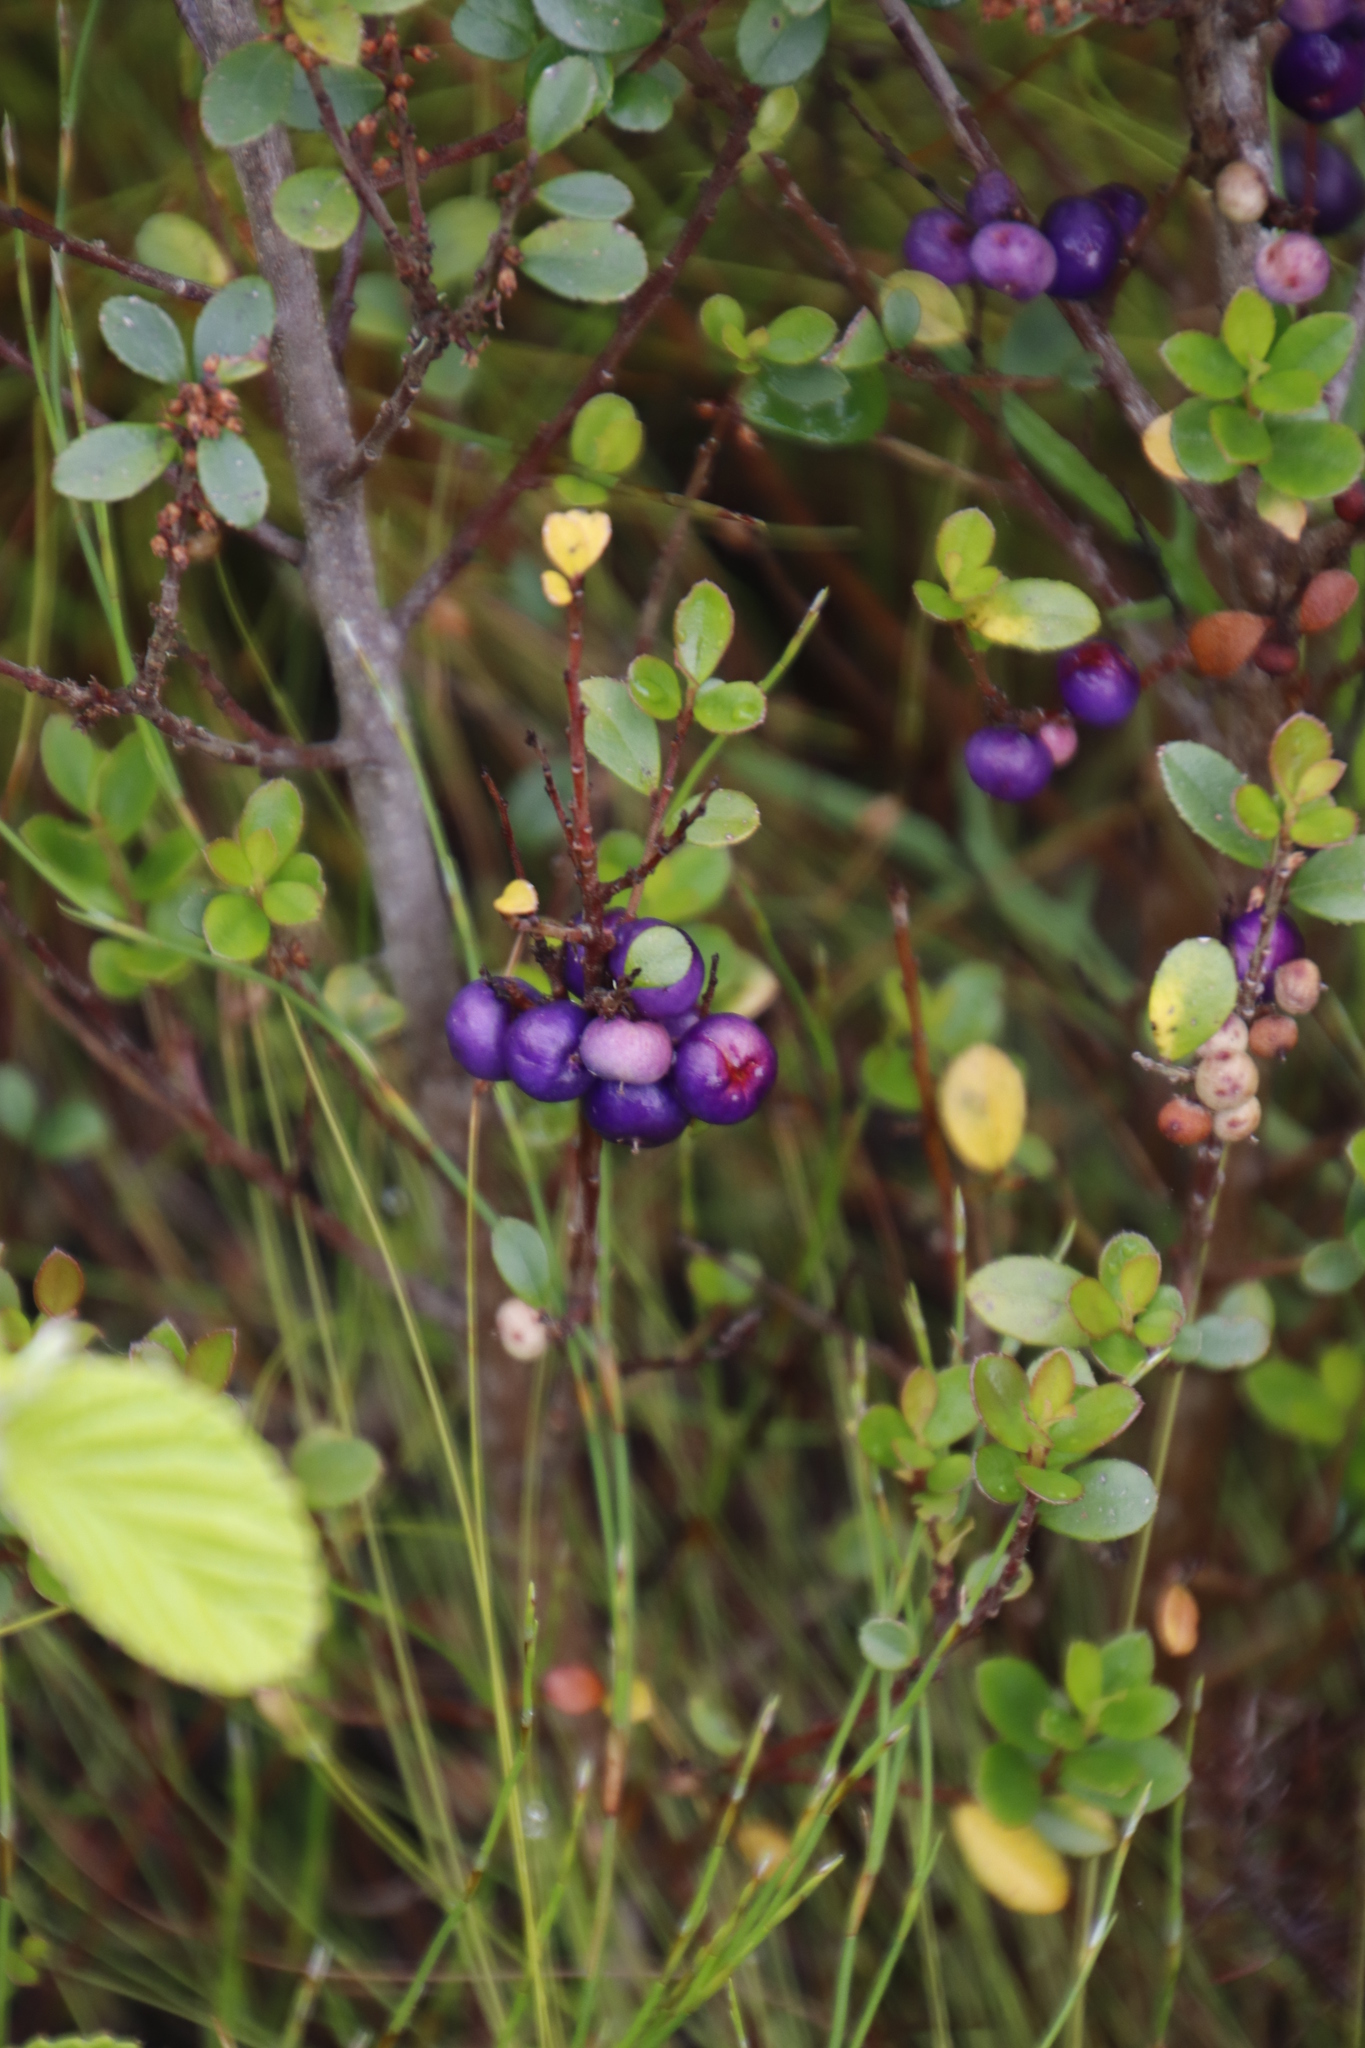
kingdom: Plantae
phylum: Tracheophyta
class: Magnoliopsida
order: Ericales
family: Primulaceae
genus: Myrsine
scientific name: Myrsine africana
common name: African-boxwood
